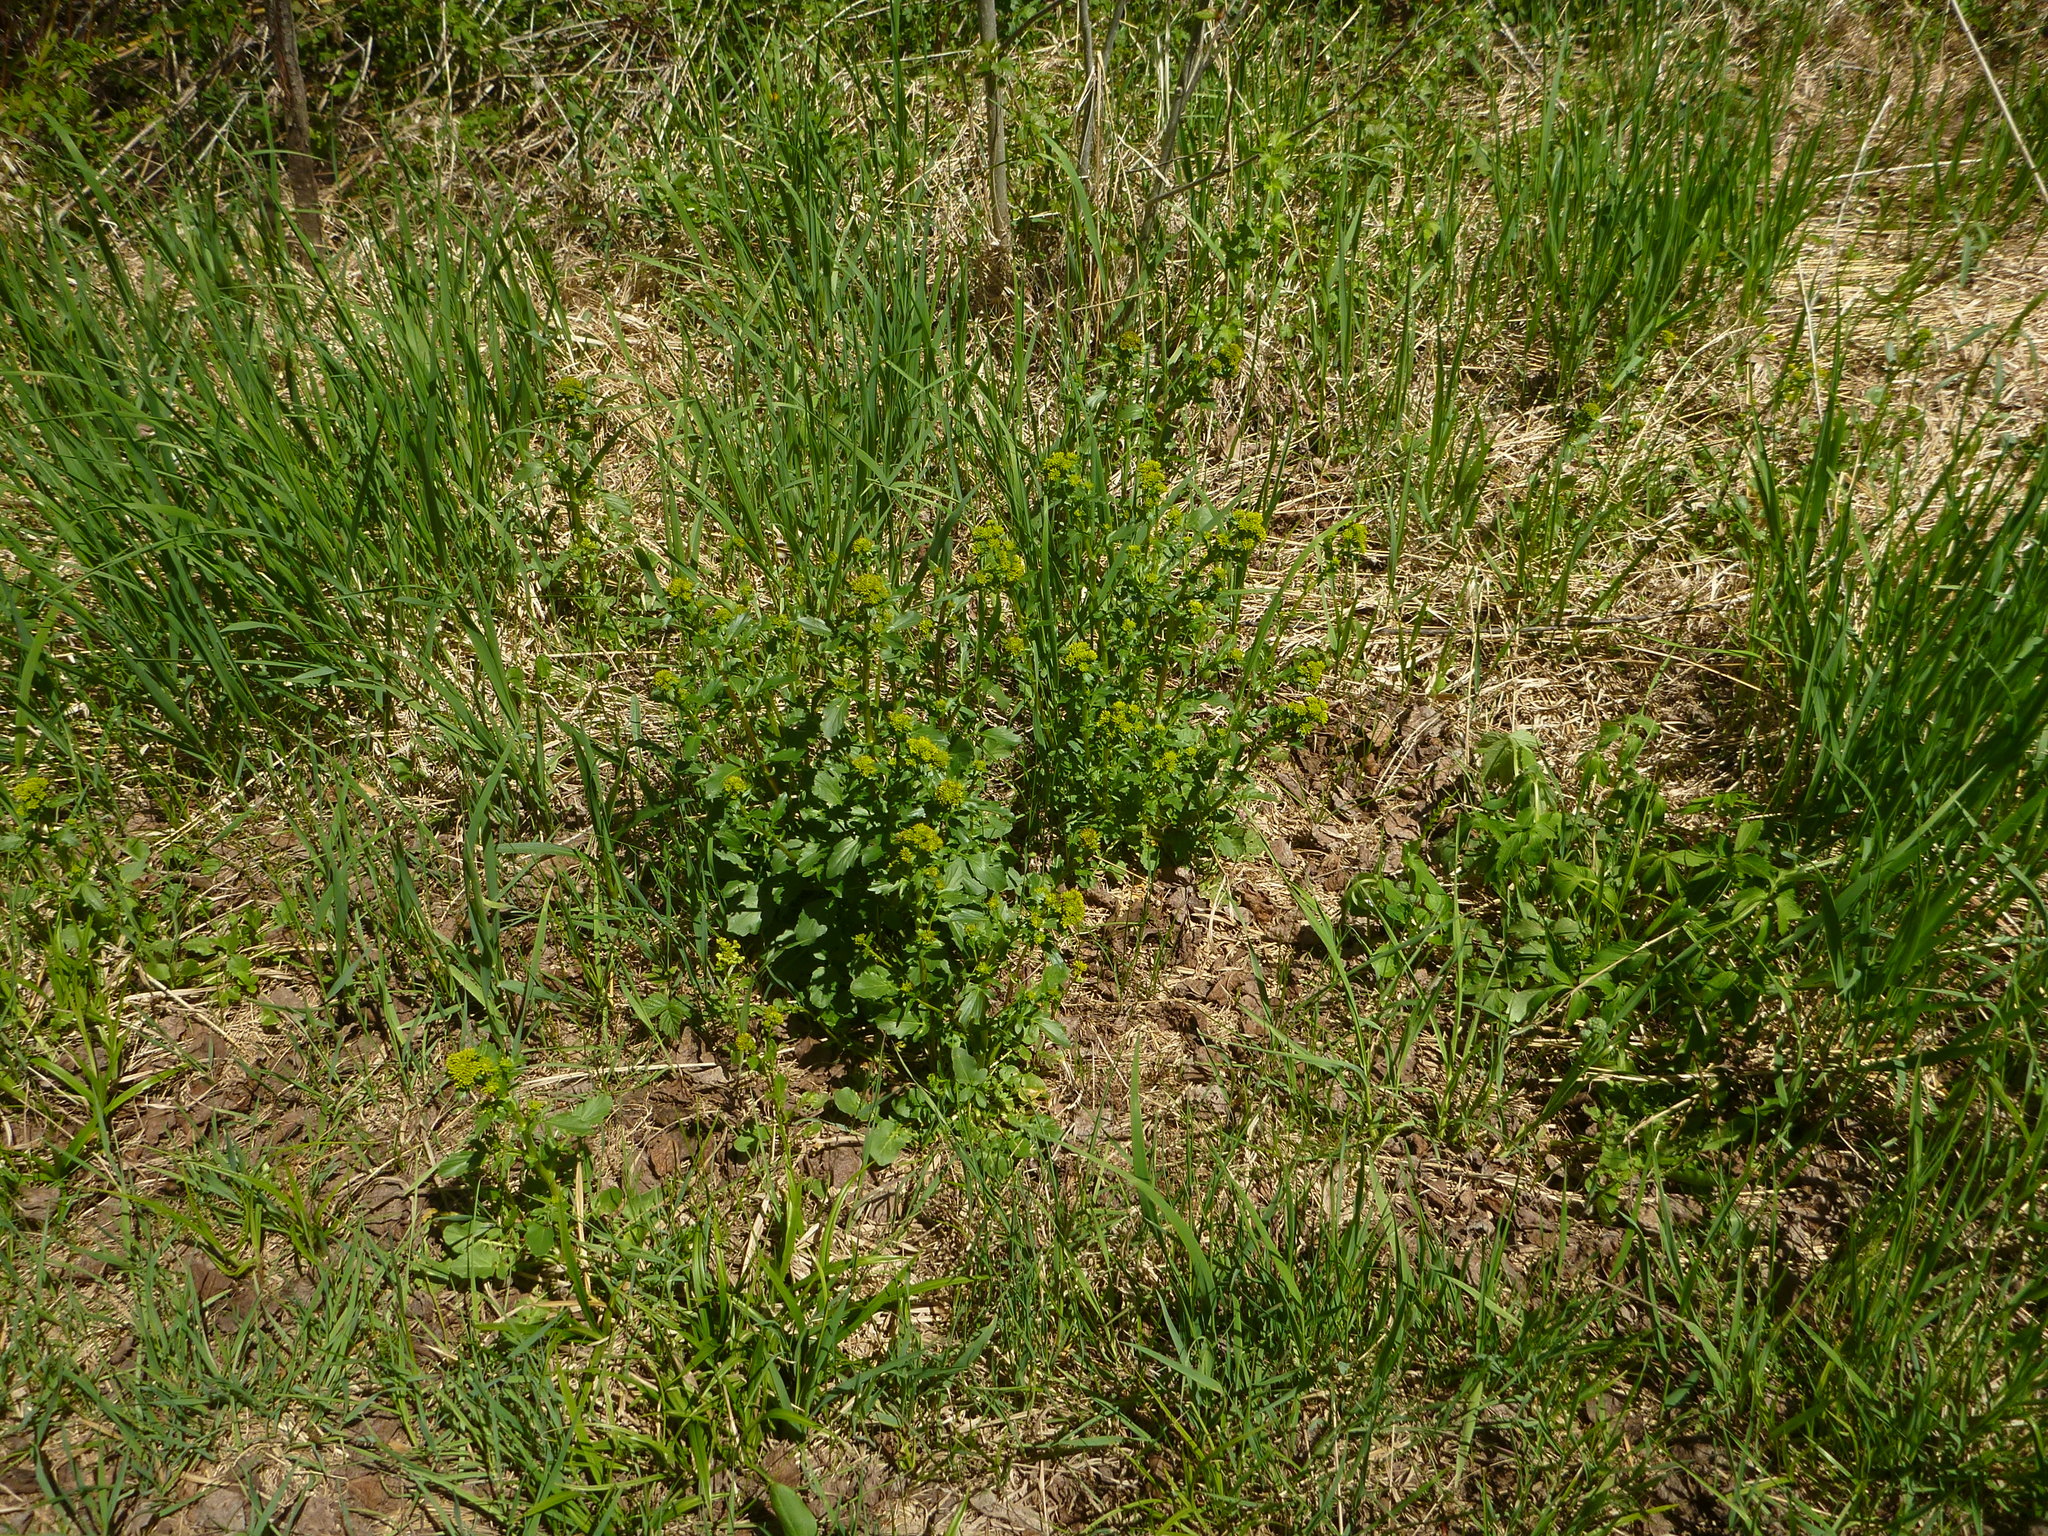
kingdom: Plantae
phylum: Tracheophyta
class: Magnoliopsida
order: Brassicales
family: Brassicaceae
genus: Barbarea
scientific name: Barbarea vulgaris
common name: Cressy-greens
